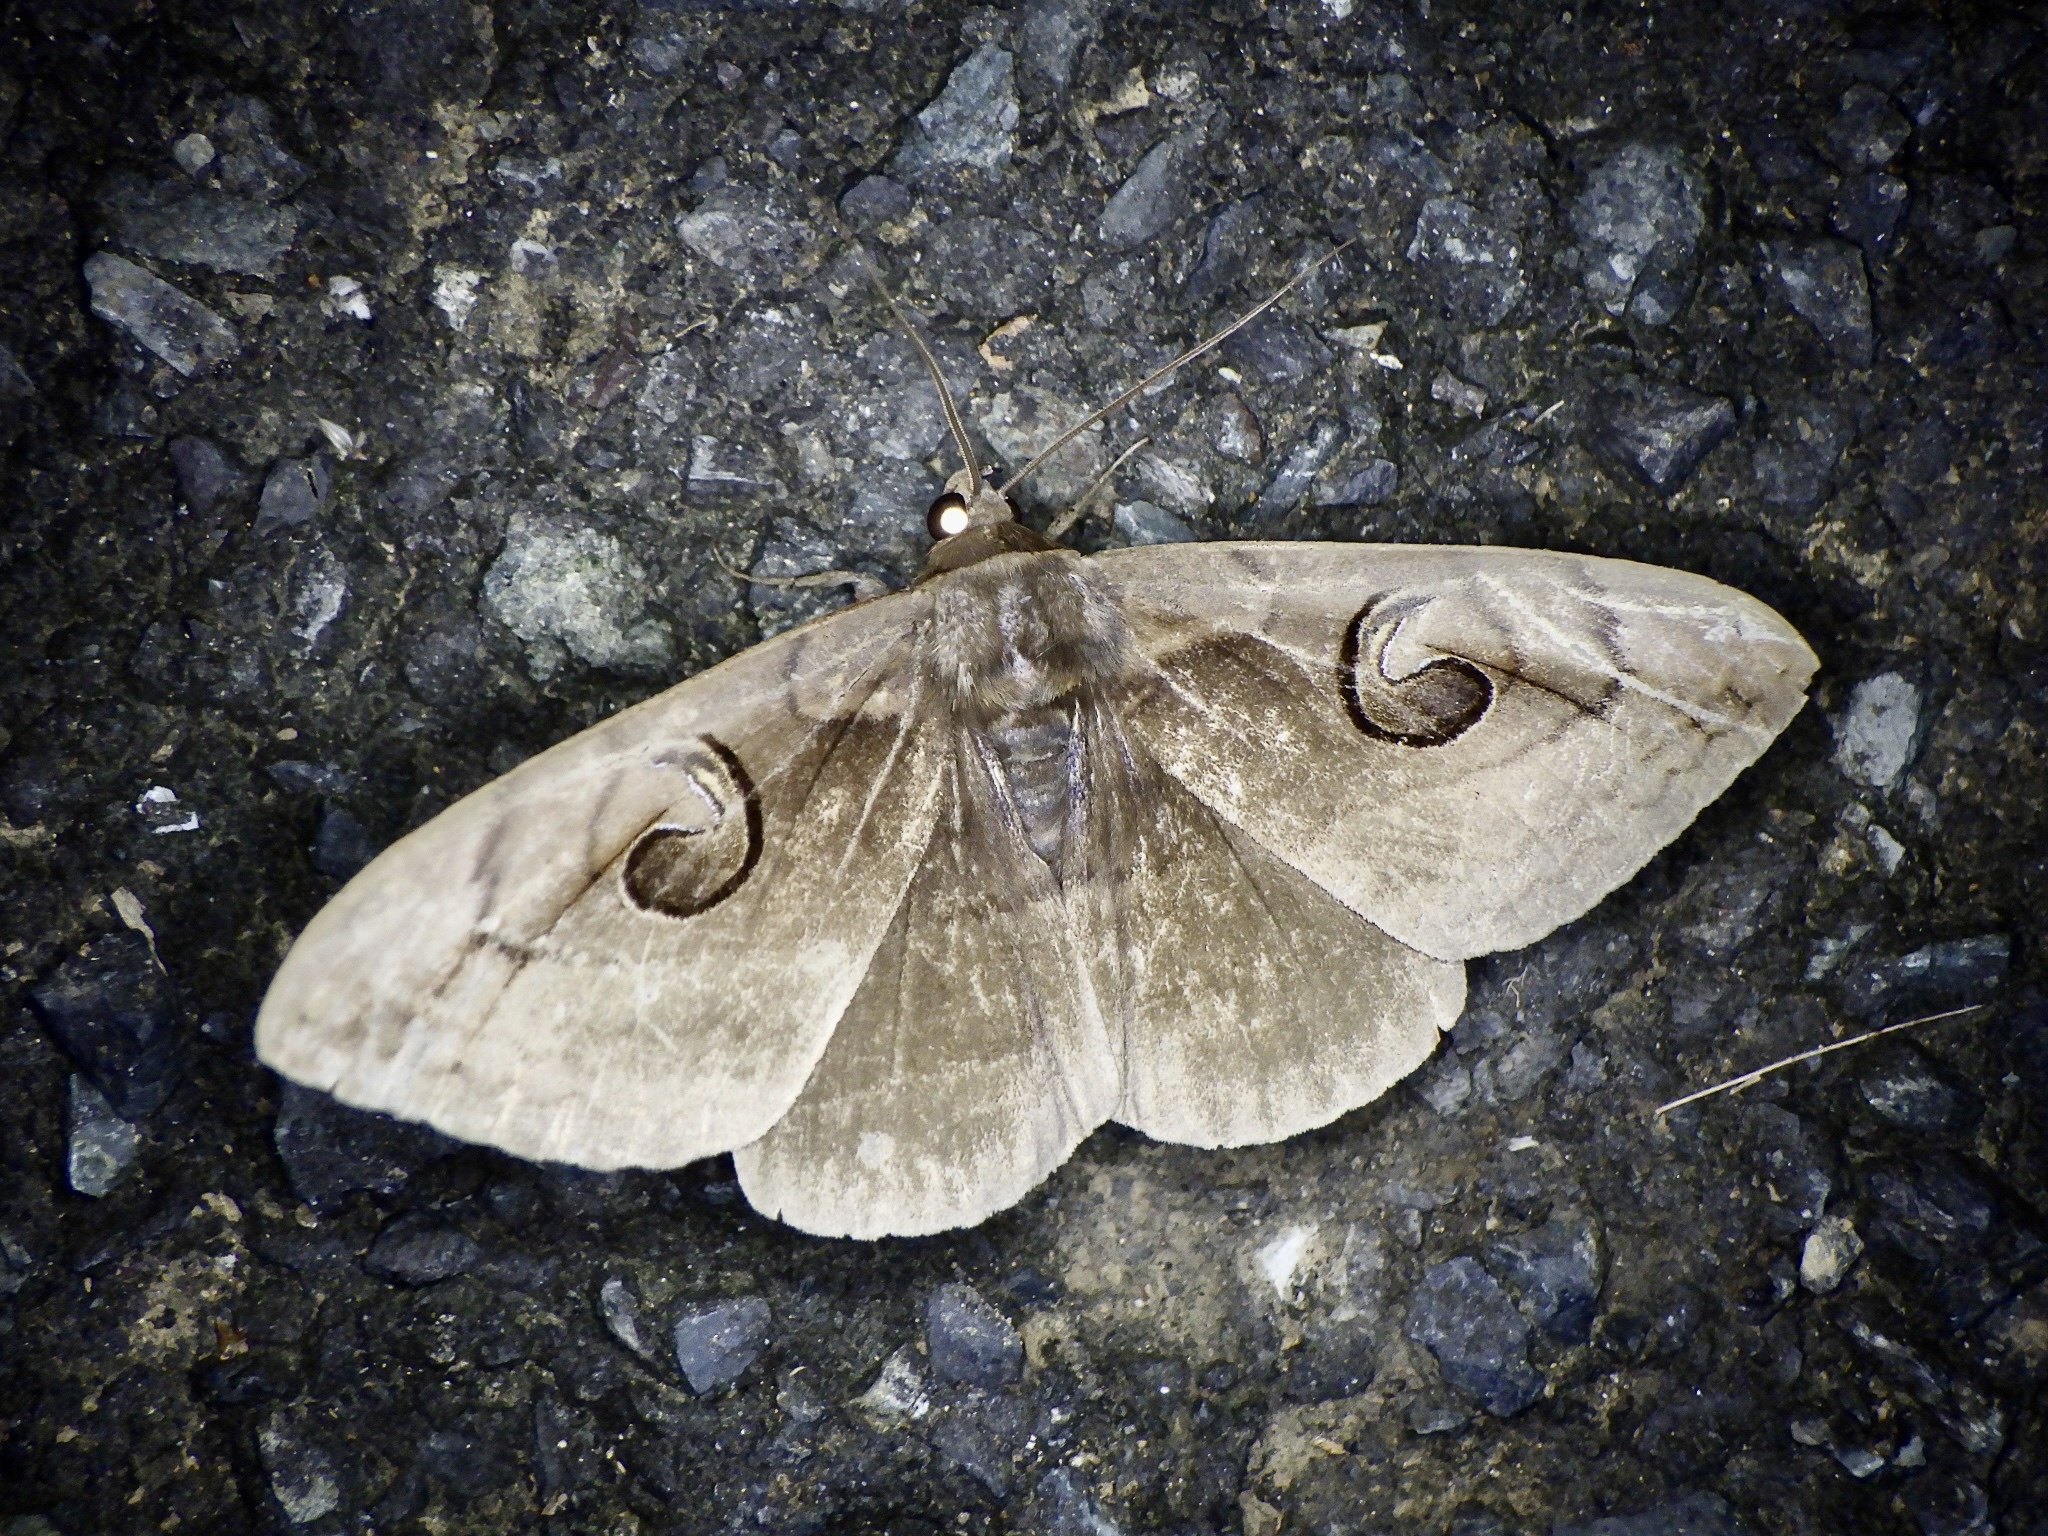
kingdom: Animalia
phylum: Arthropoda
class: Insecta
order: Lepidoptera
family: Erebidae
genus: Spirama
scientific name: Spirama retorta
